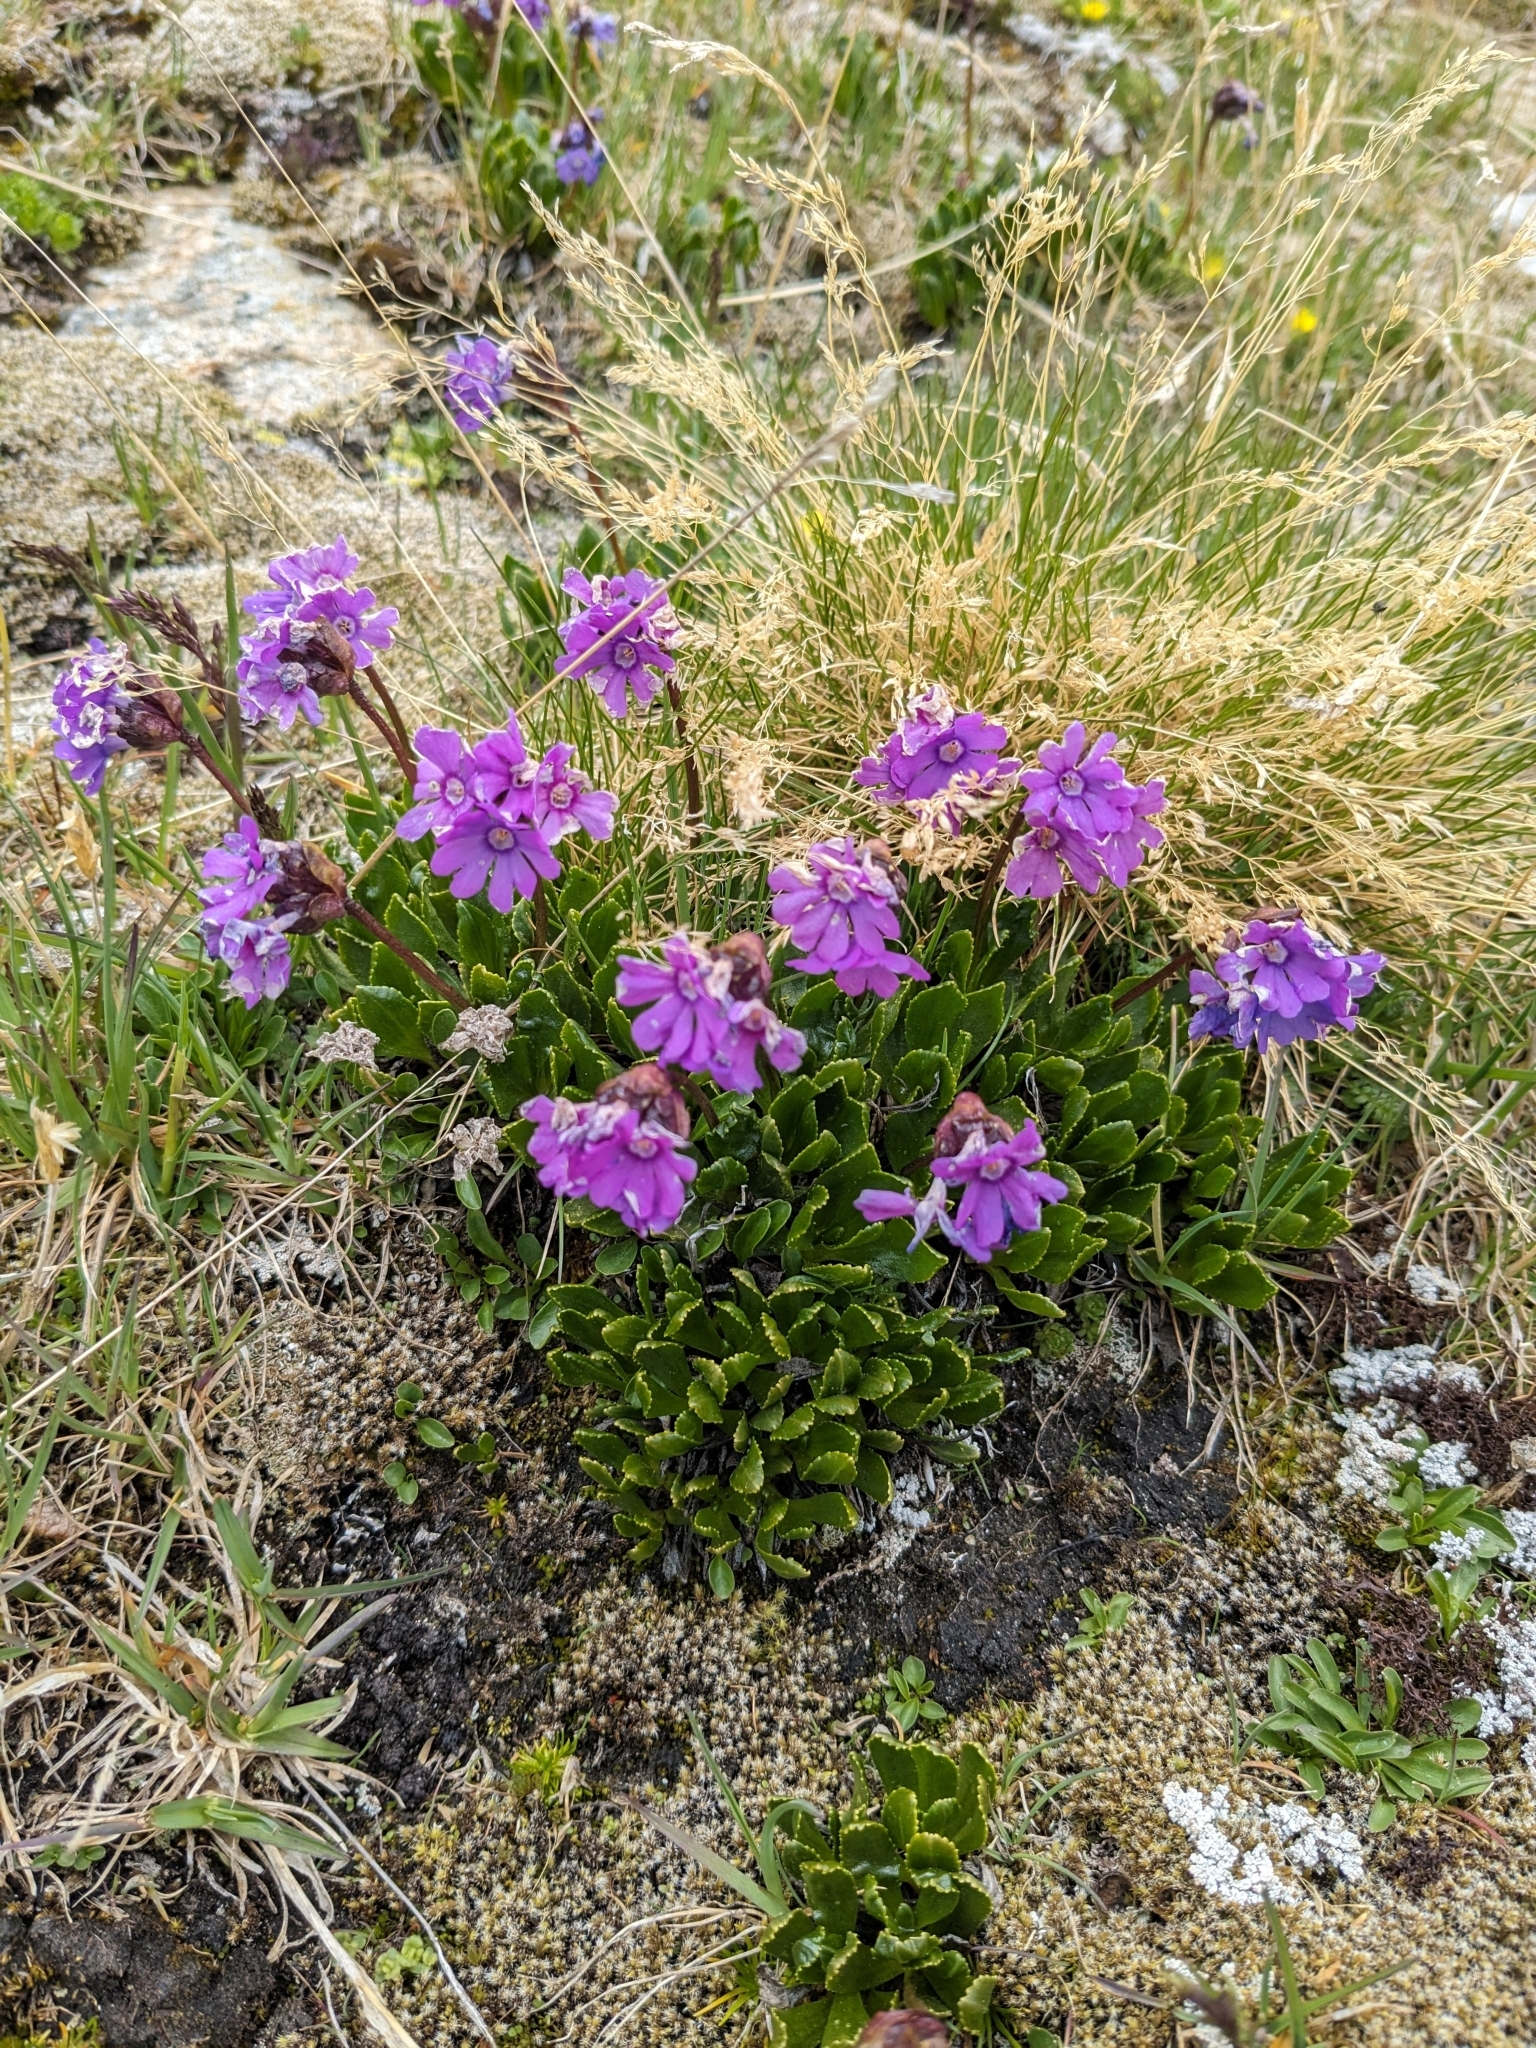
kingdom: Plantae
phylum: Tracheophyta
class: Magnoliopsida
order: Ericales
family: Primulaceae
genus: Primula
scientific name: Primula glutinosa
